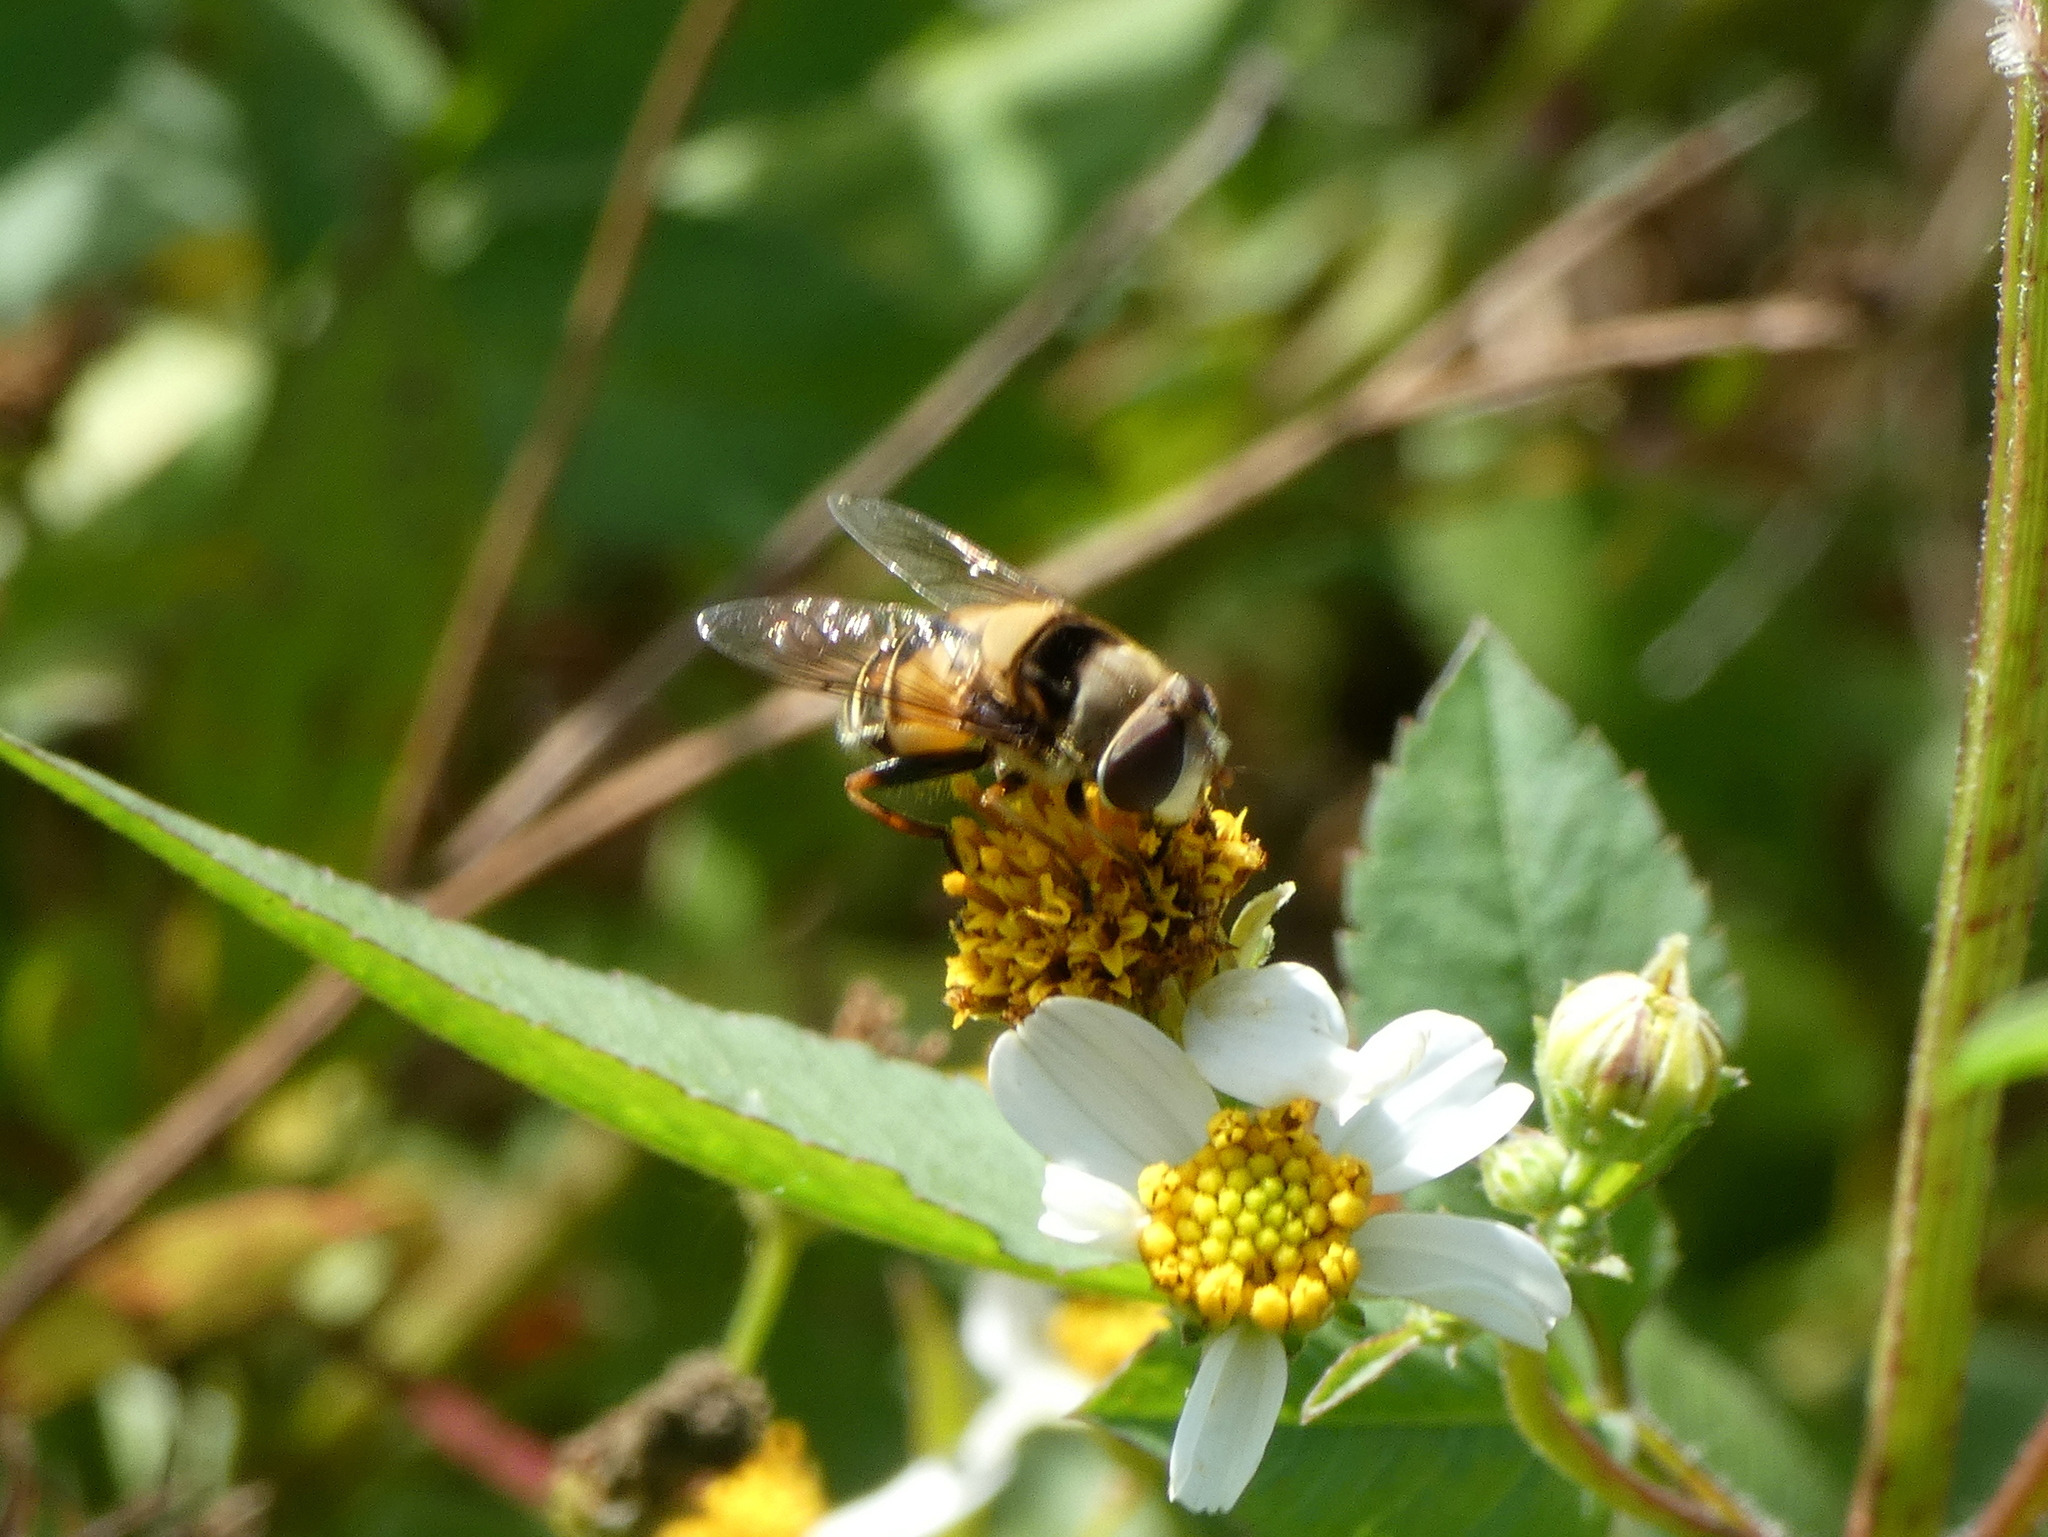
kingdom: Animalia
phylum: Arthropoda
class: Insecta
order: Diptera
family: Syrphidae
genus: Palpada
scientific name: Palpada pusilla
